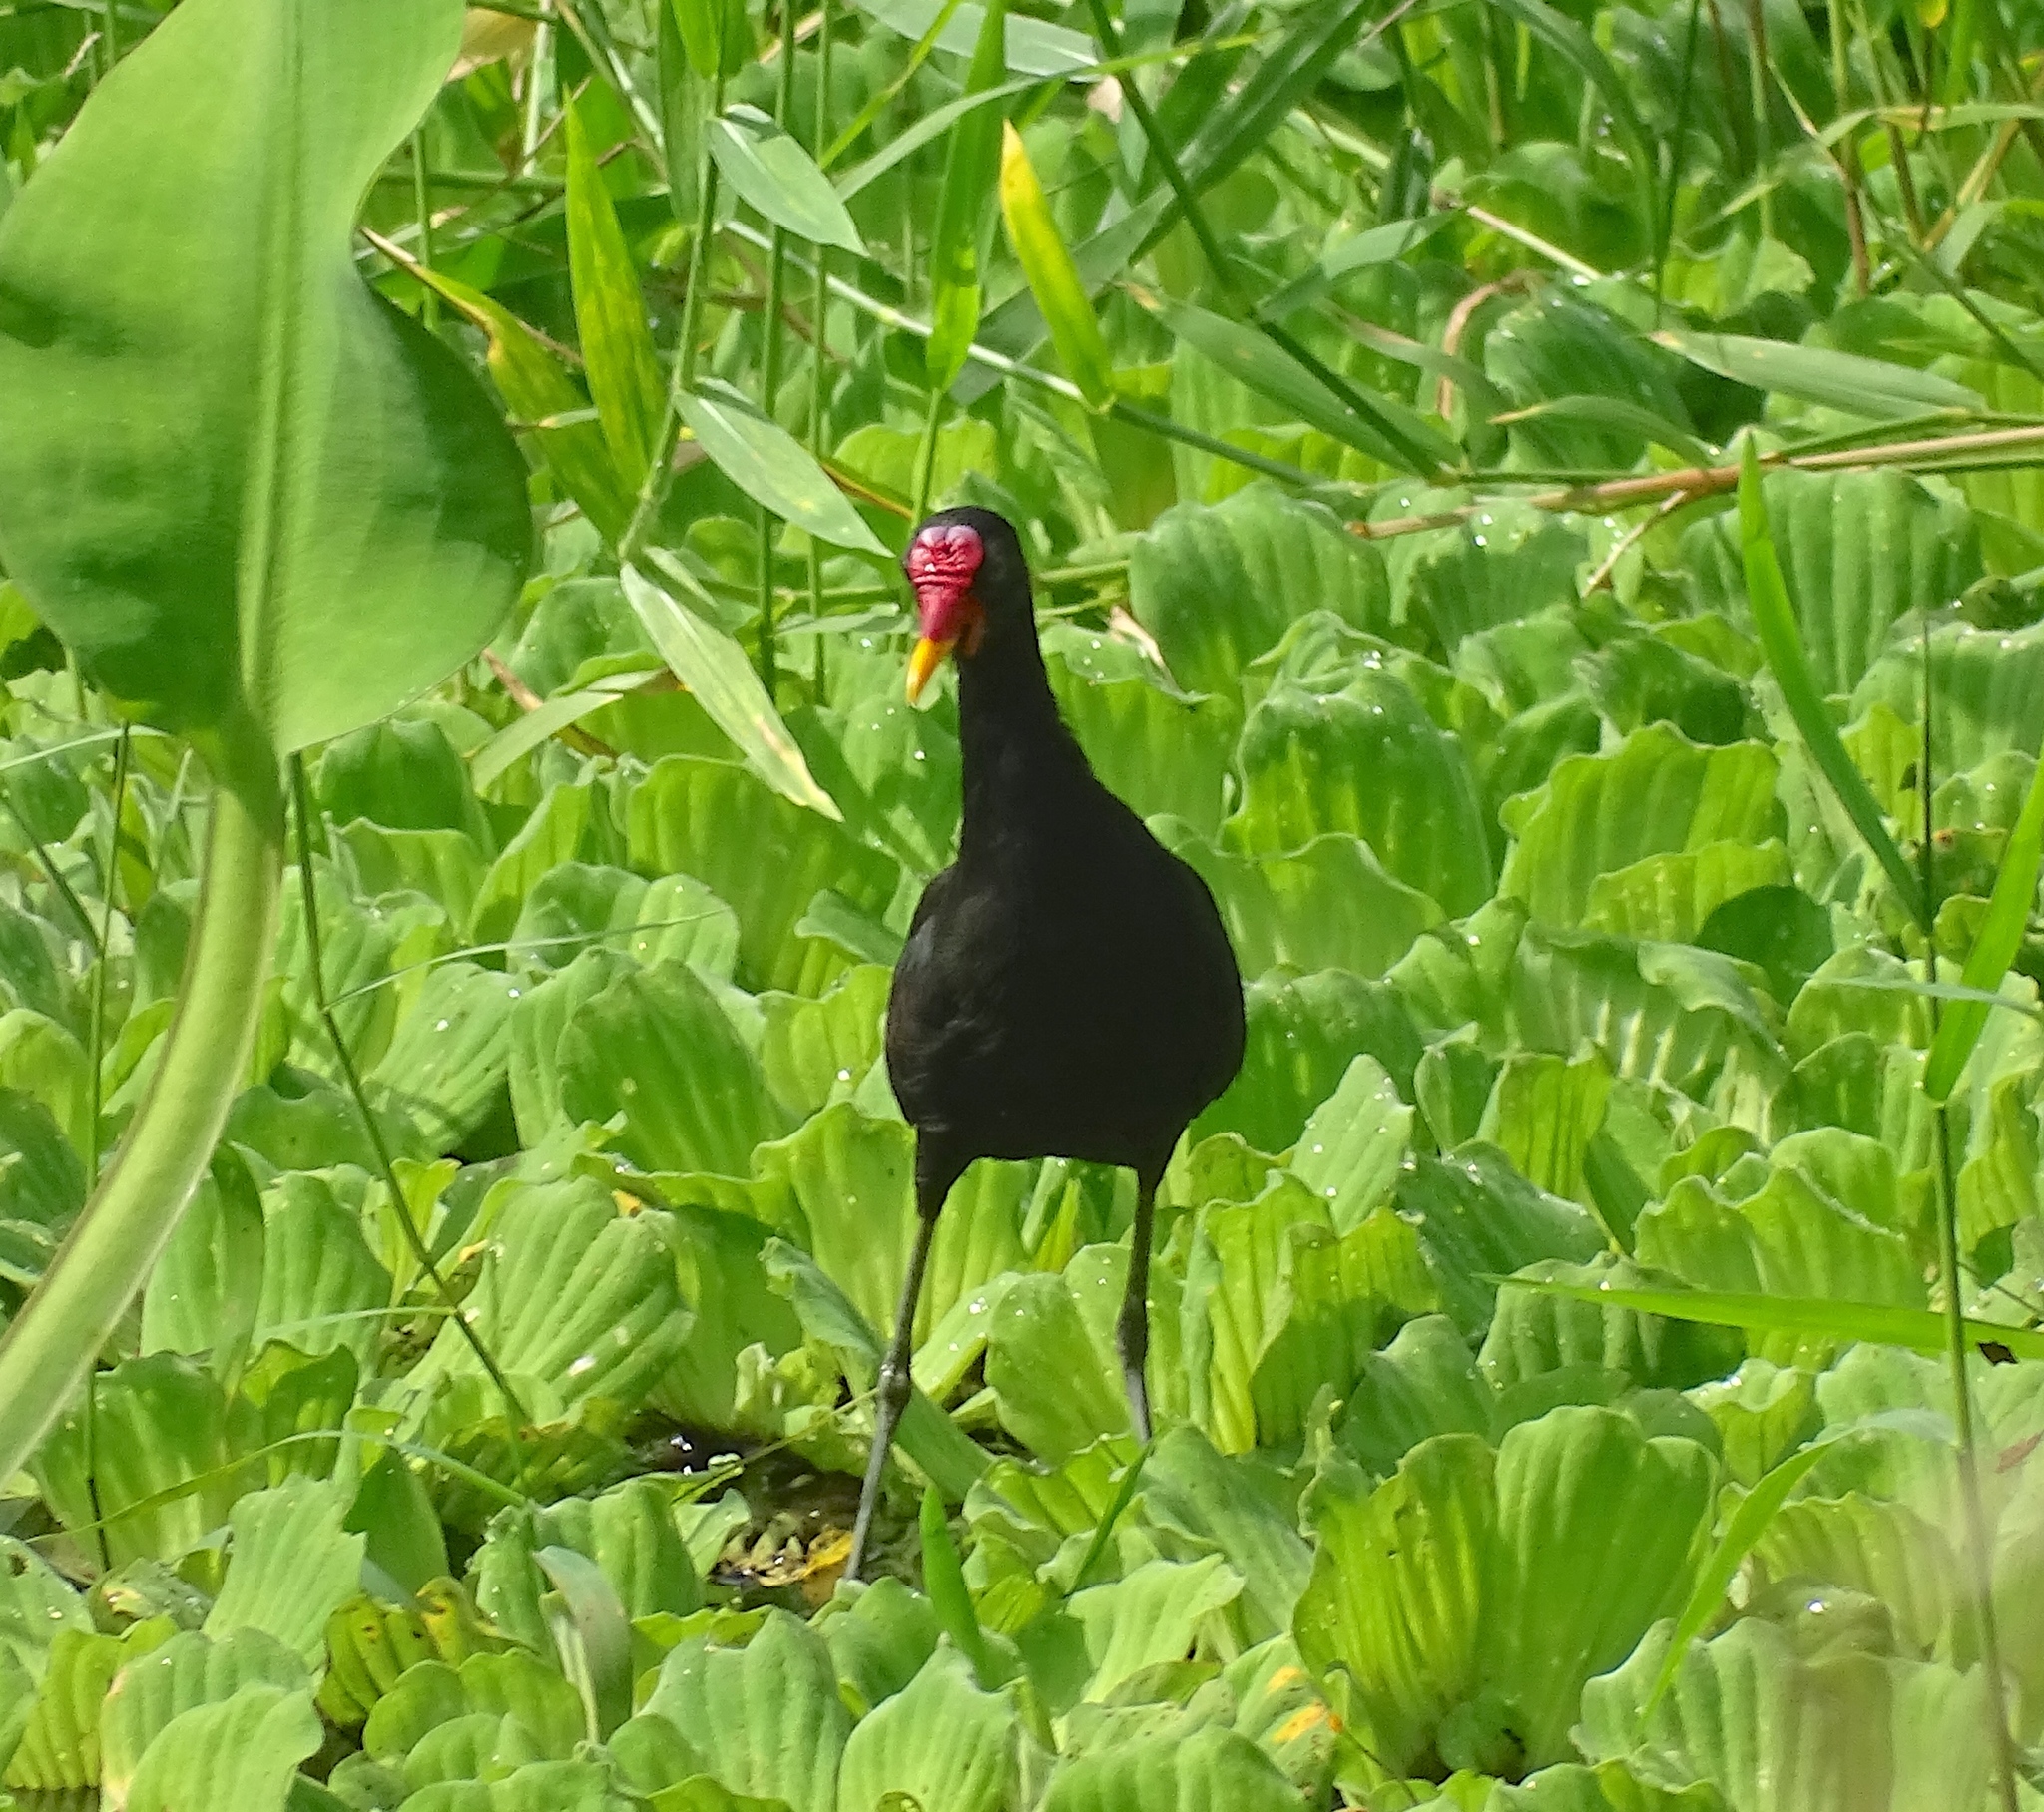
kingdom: Animalia
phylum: Chordata
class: Aves
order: Charadriiformes
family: Jacanidae
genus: Jacana
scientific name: Jacana jacana
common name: Wattled jacana
